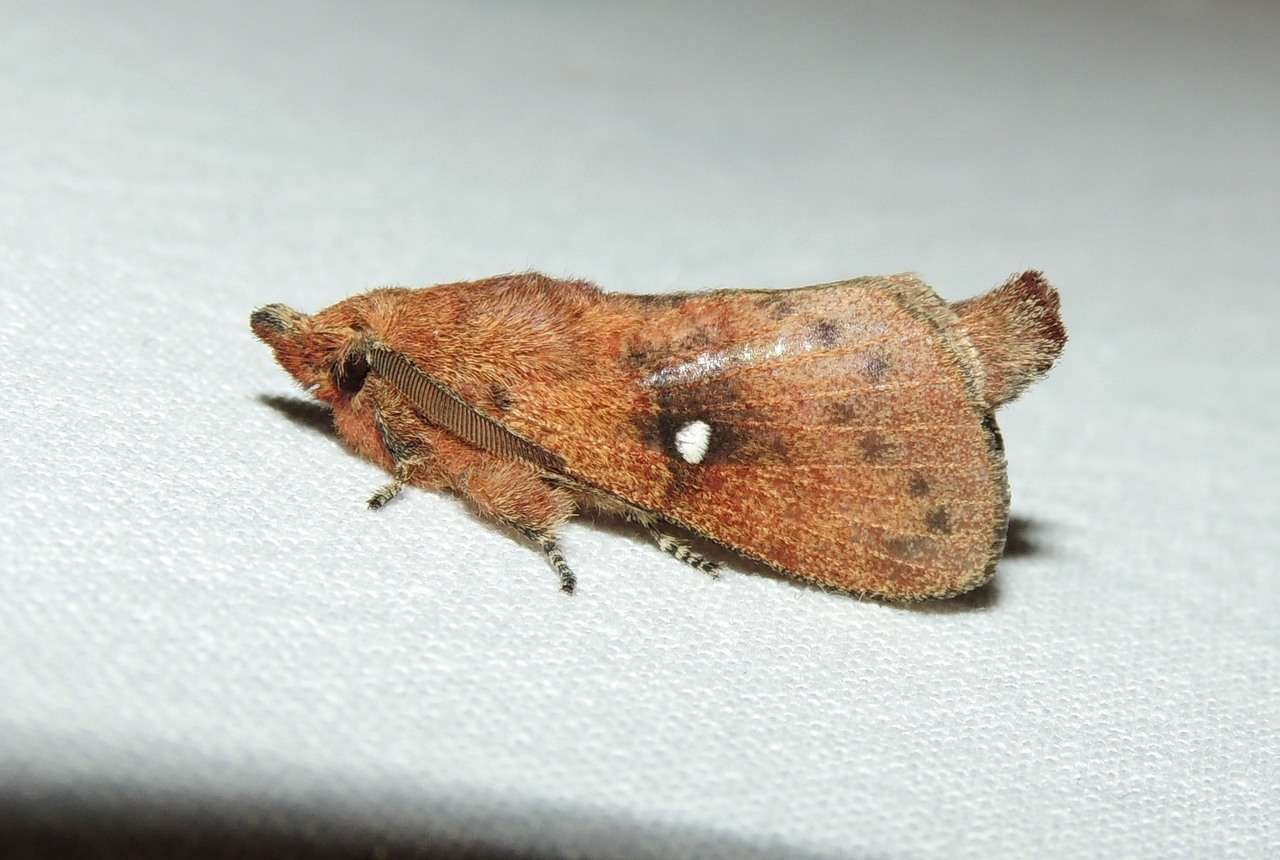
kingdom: Animalia
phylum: Arthropoda
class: Insecta
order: Lepidoptera
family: Lasiocampidae
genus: Opsirhina
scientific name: Opsirhina lechriodes
